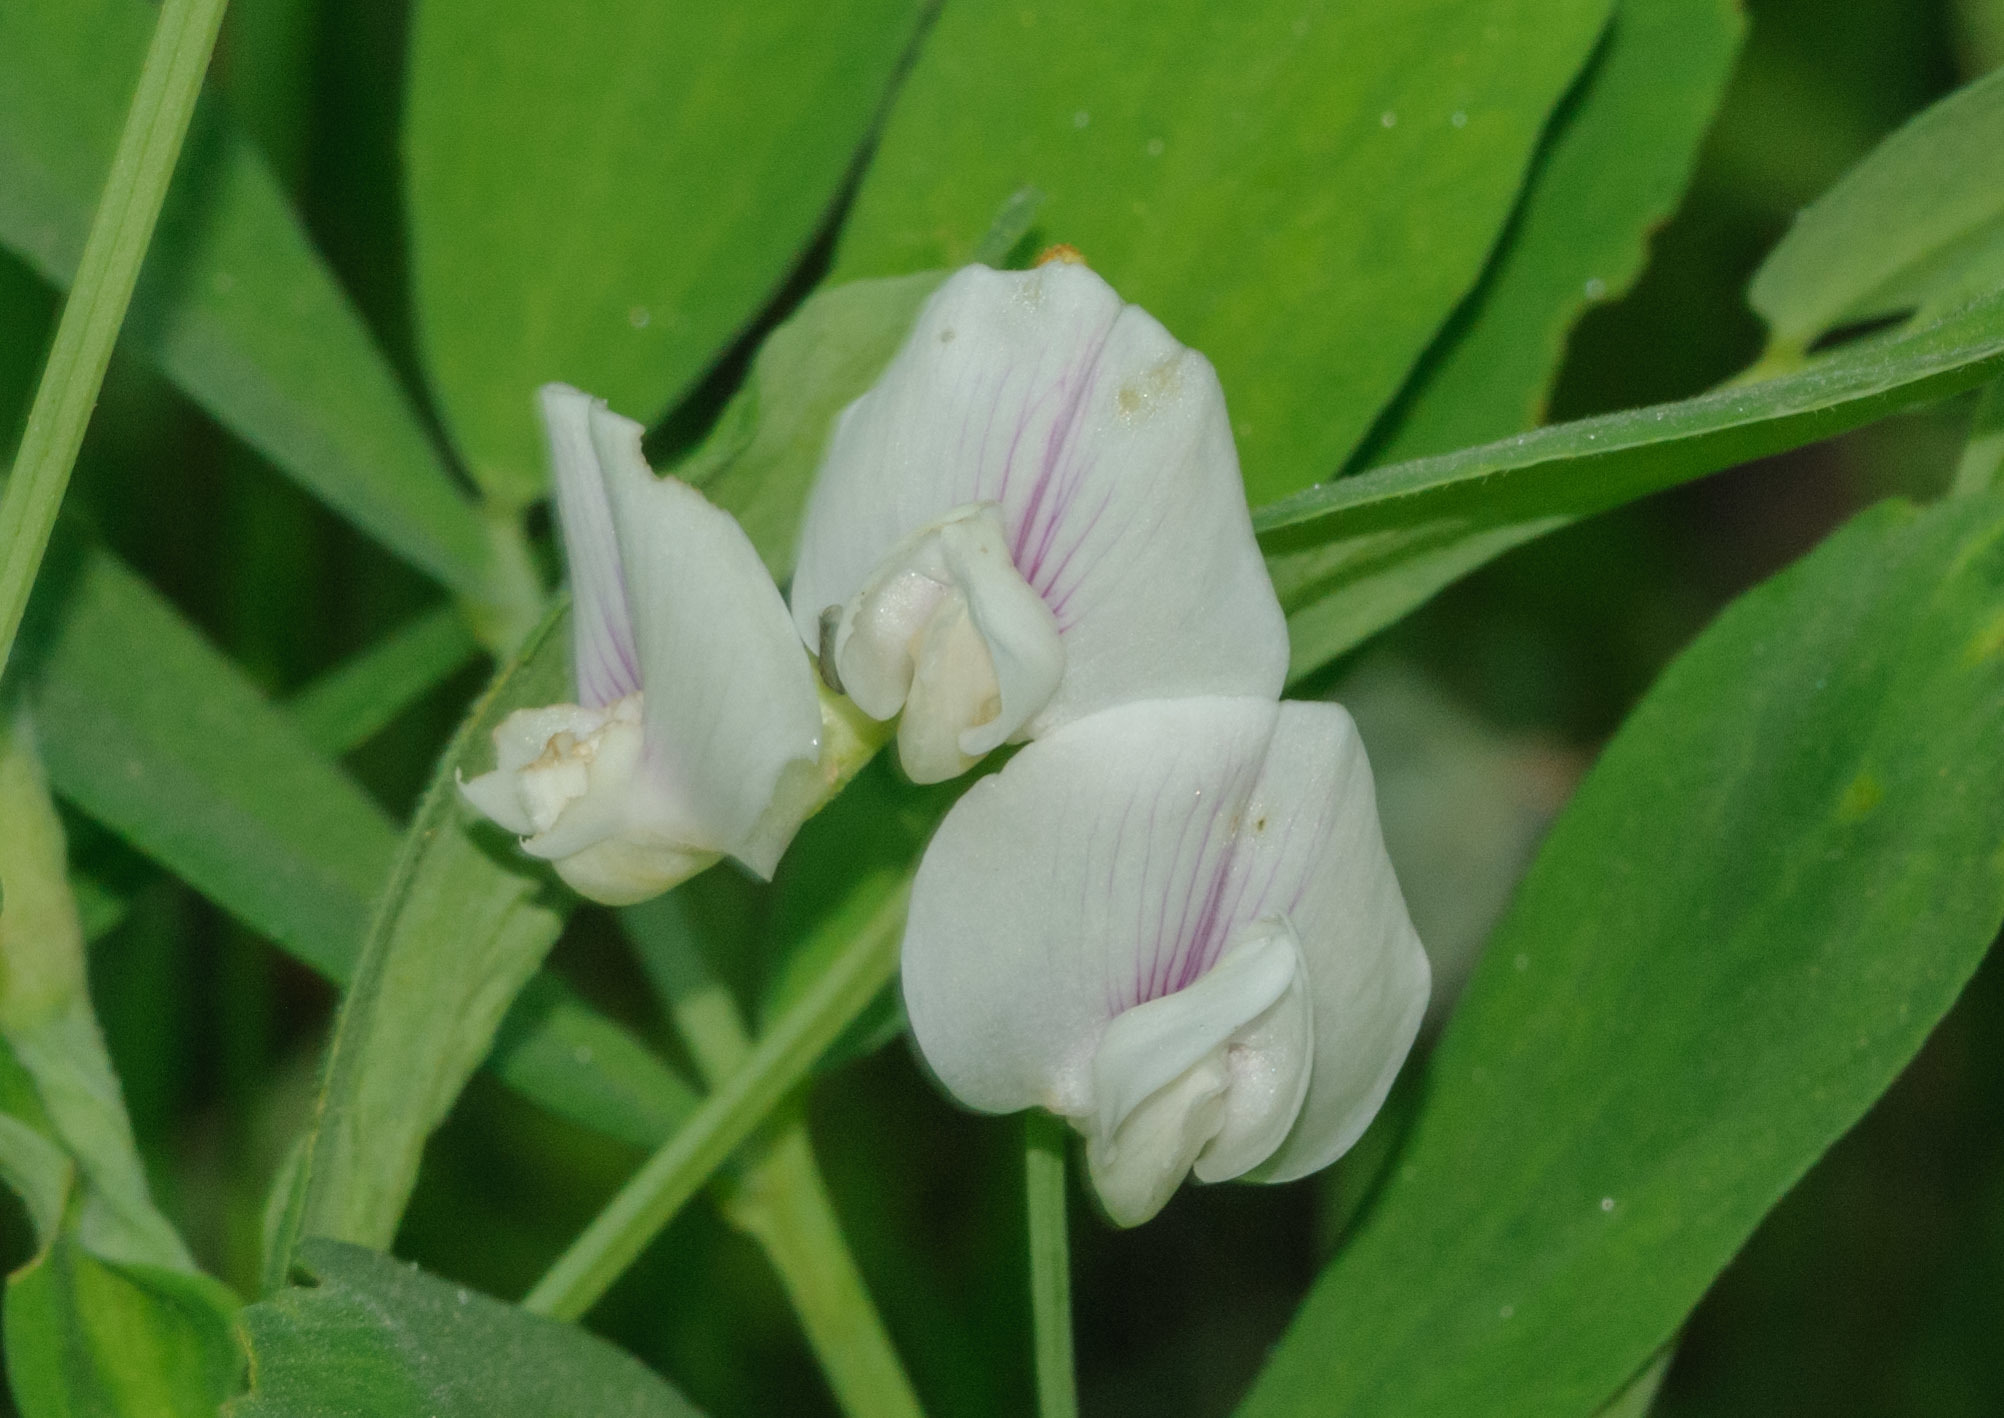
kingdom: Plantae
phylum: Tracheophyta
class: Magnoliopsida
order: Fabales
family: Fabaceae
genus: Lathyrus
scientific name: Lathyrus lanszwertii
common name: Lanszwert's vetchling
